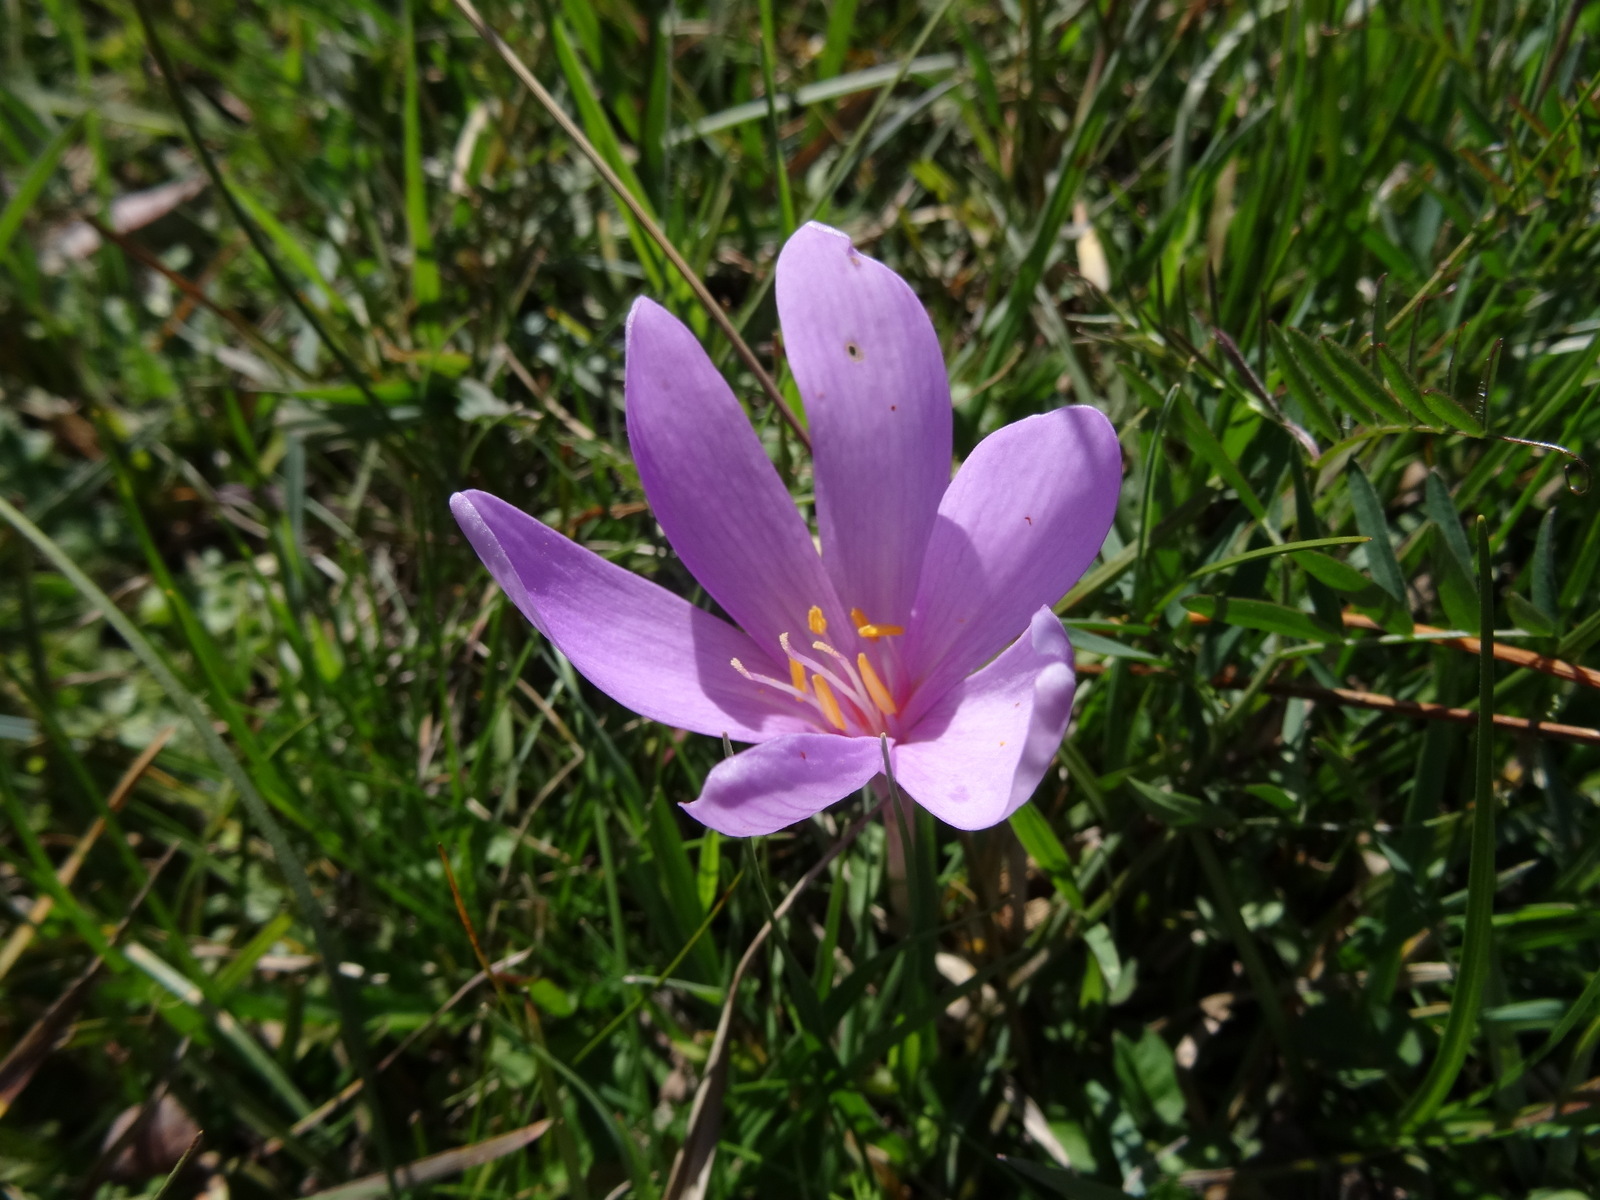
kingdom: Plantae
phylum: Tracheophyta
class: Liliopsida
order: Liliales
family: Colchicaceae
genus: Colchicum
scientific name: Colchicum autumnale
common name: Autumn crocus
